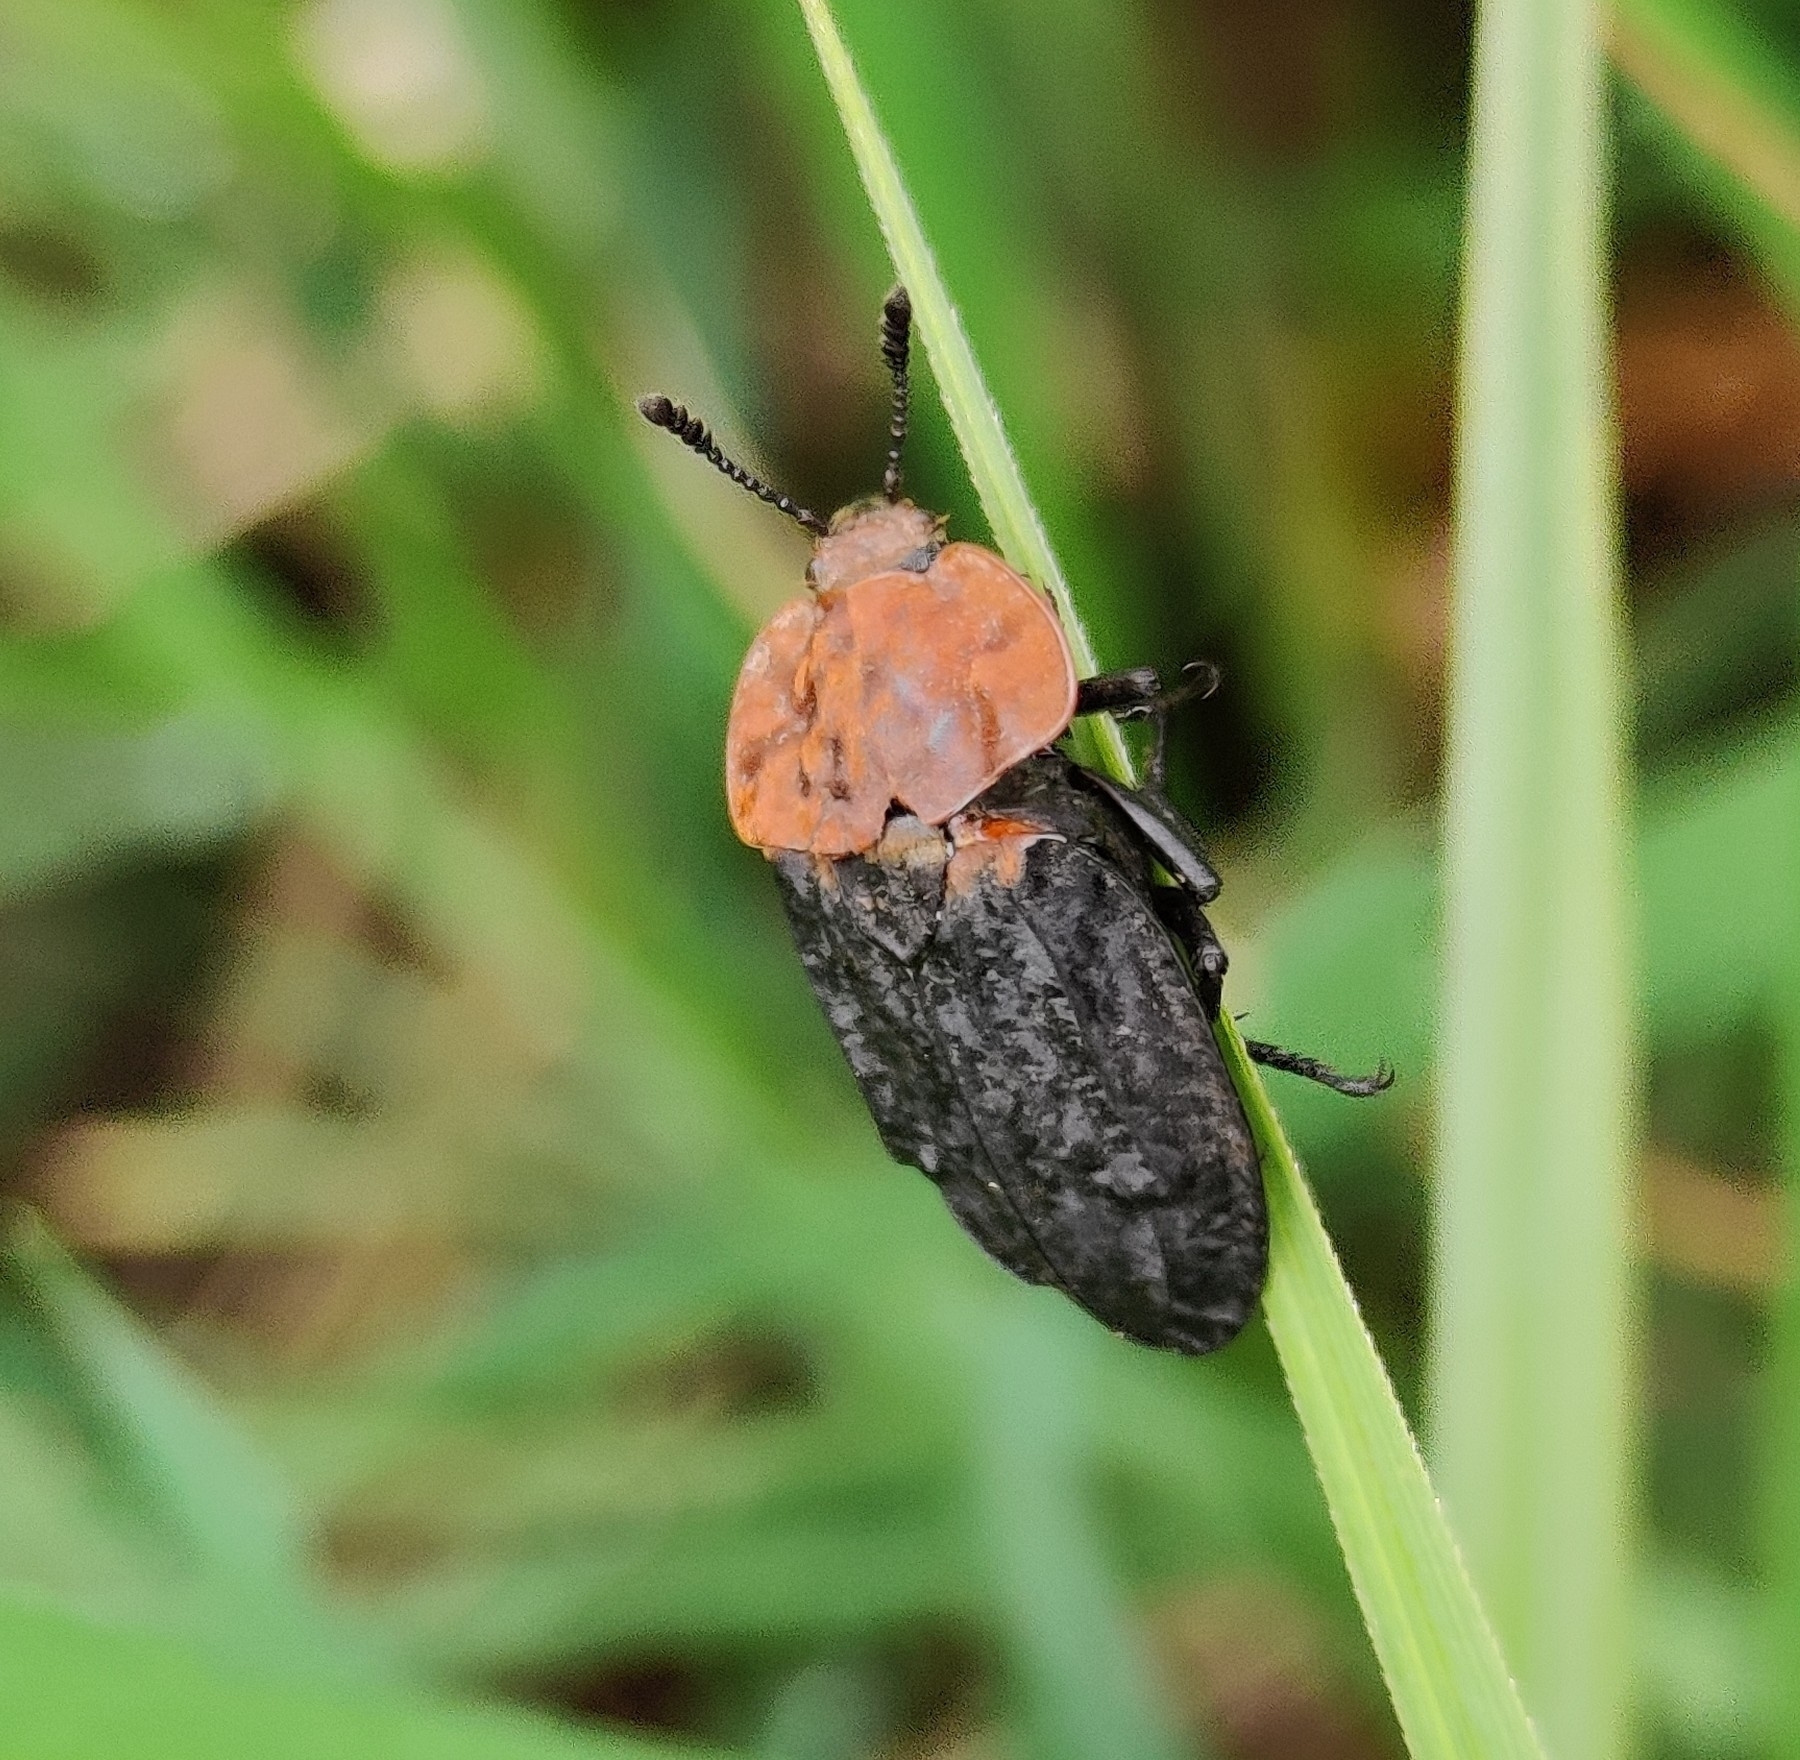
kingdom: Animalia
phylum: Arthropoda
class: Insecta
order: Coleoptera
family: Staphylinidae
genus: Oiceoptoma
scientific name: Oiceoptoma thoracicum
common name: Red-breasted carrion beetle
